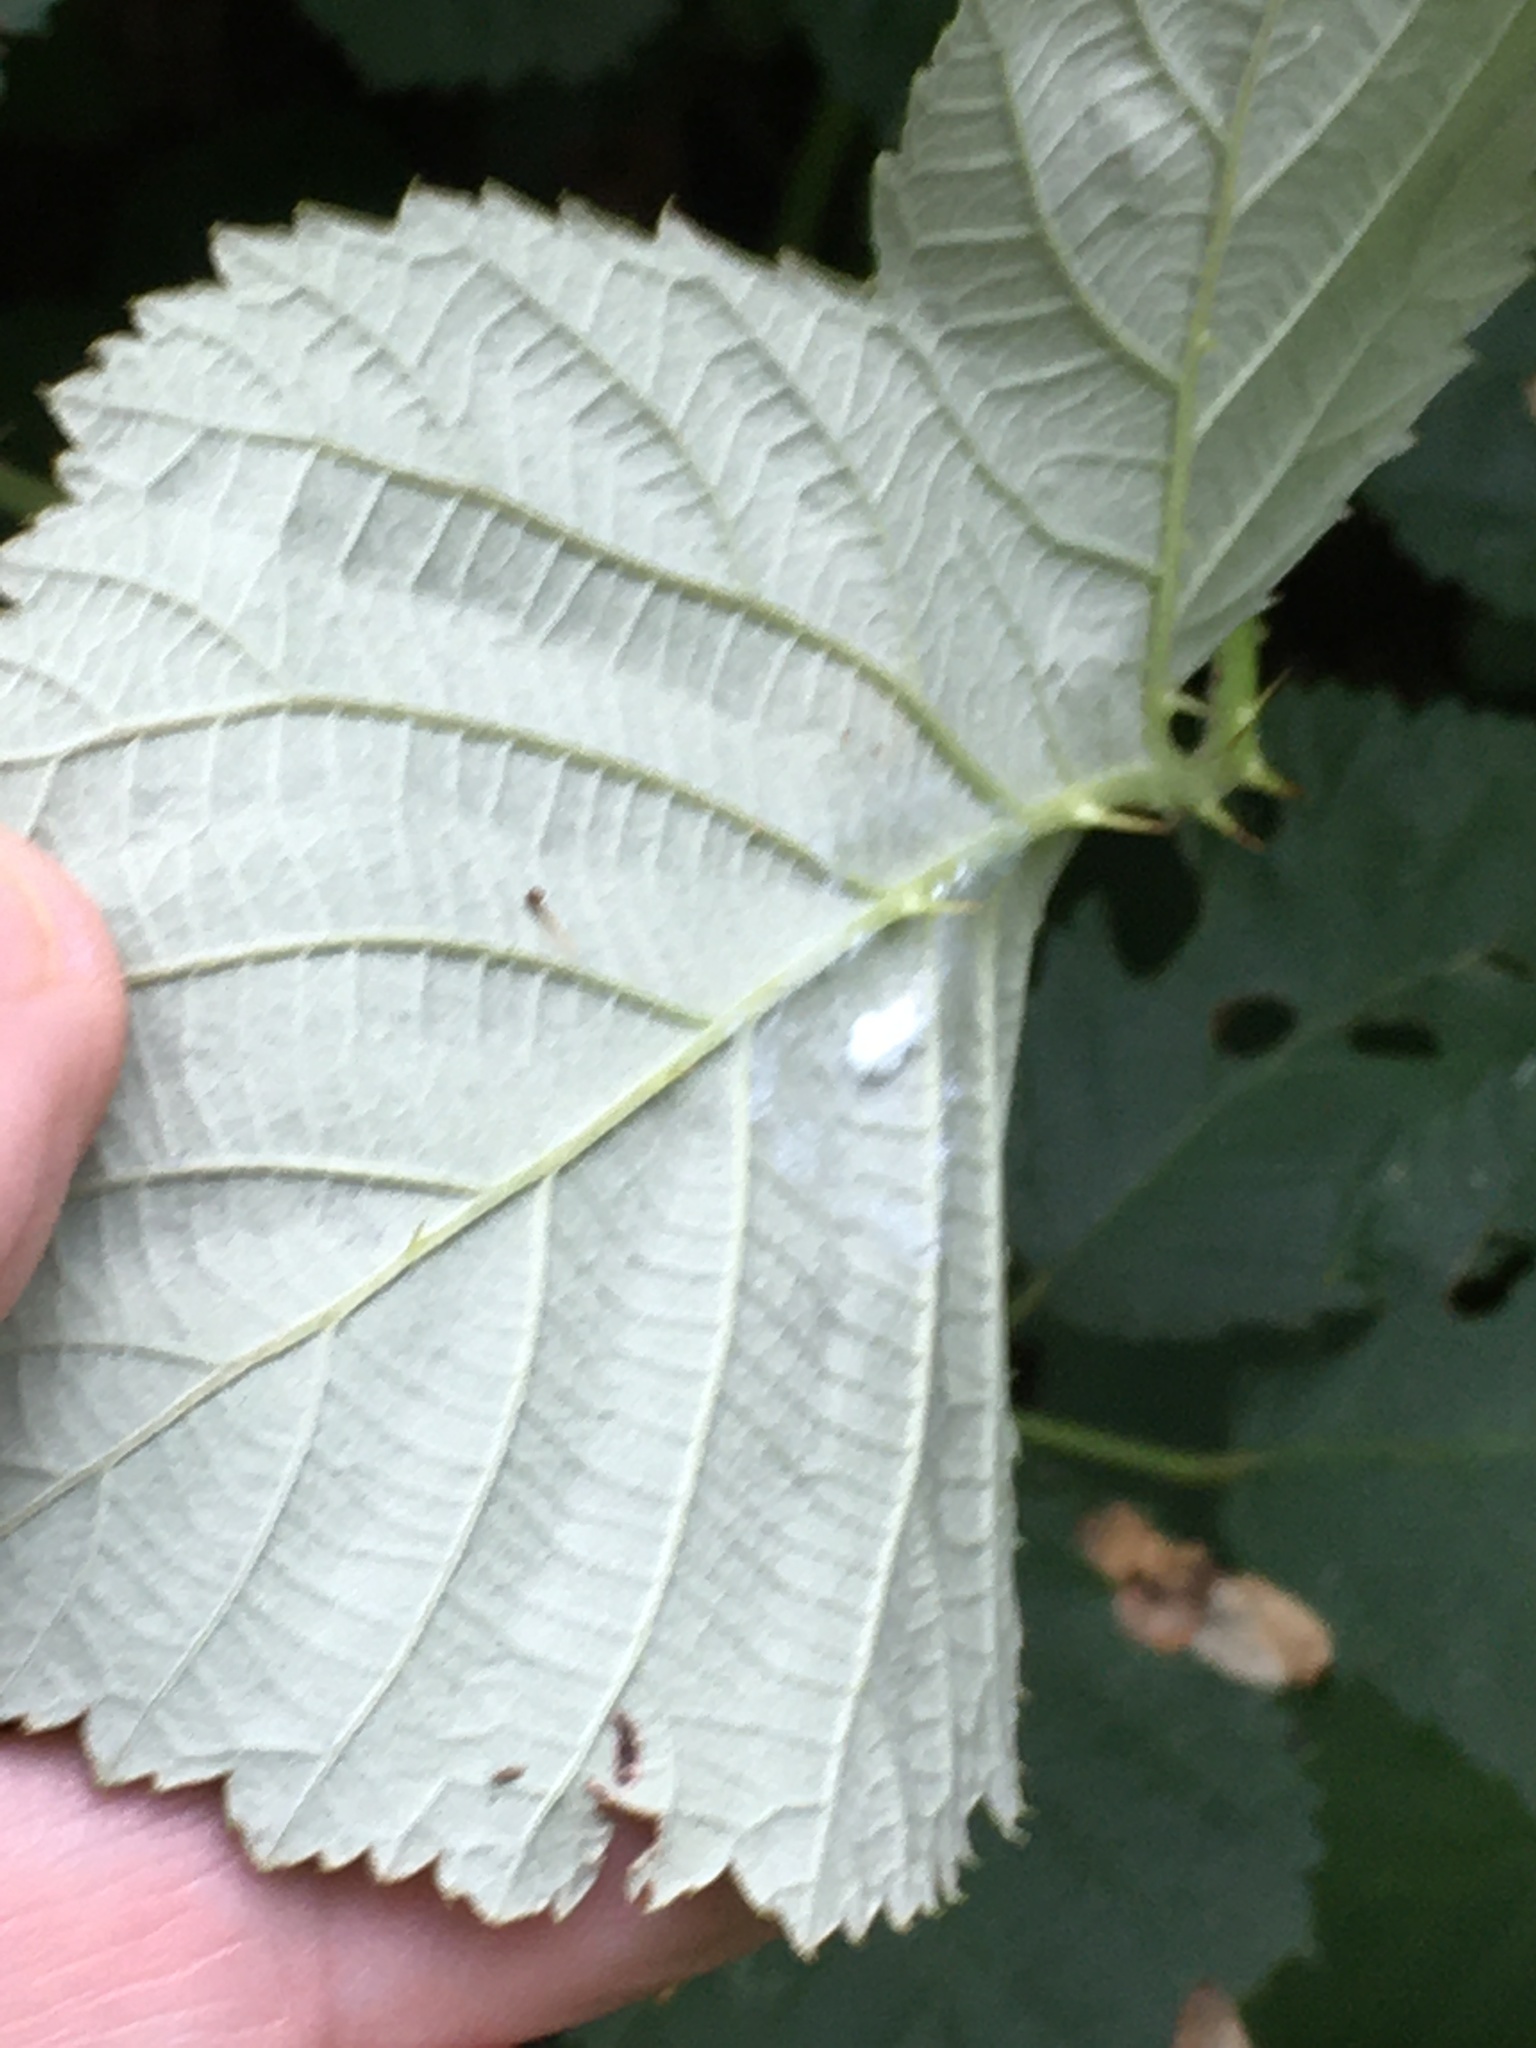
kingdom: Plantae
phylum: Tracheophyta
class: Magnoliopsida
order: Rosales
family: Rosaceae
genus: Rubus
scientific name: Rubus bifrons
